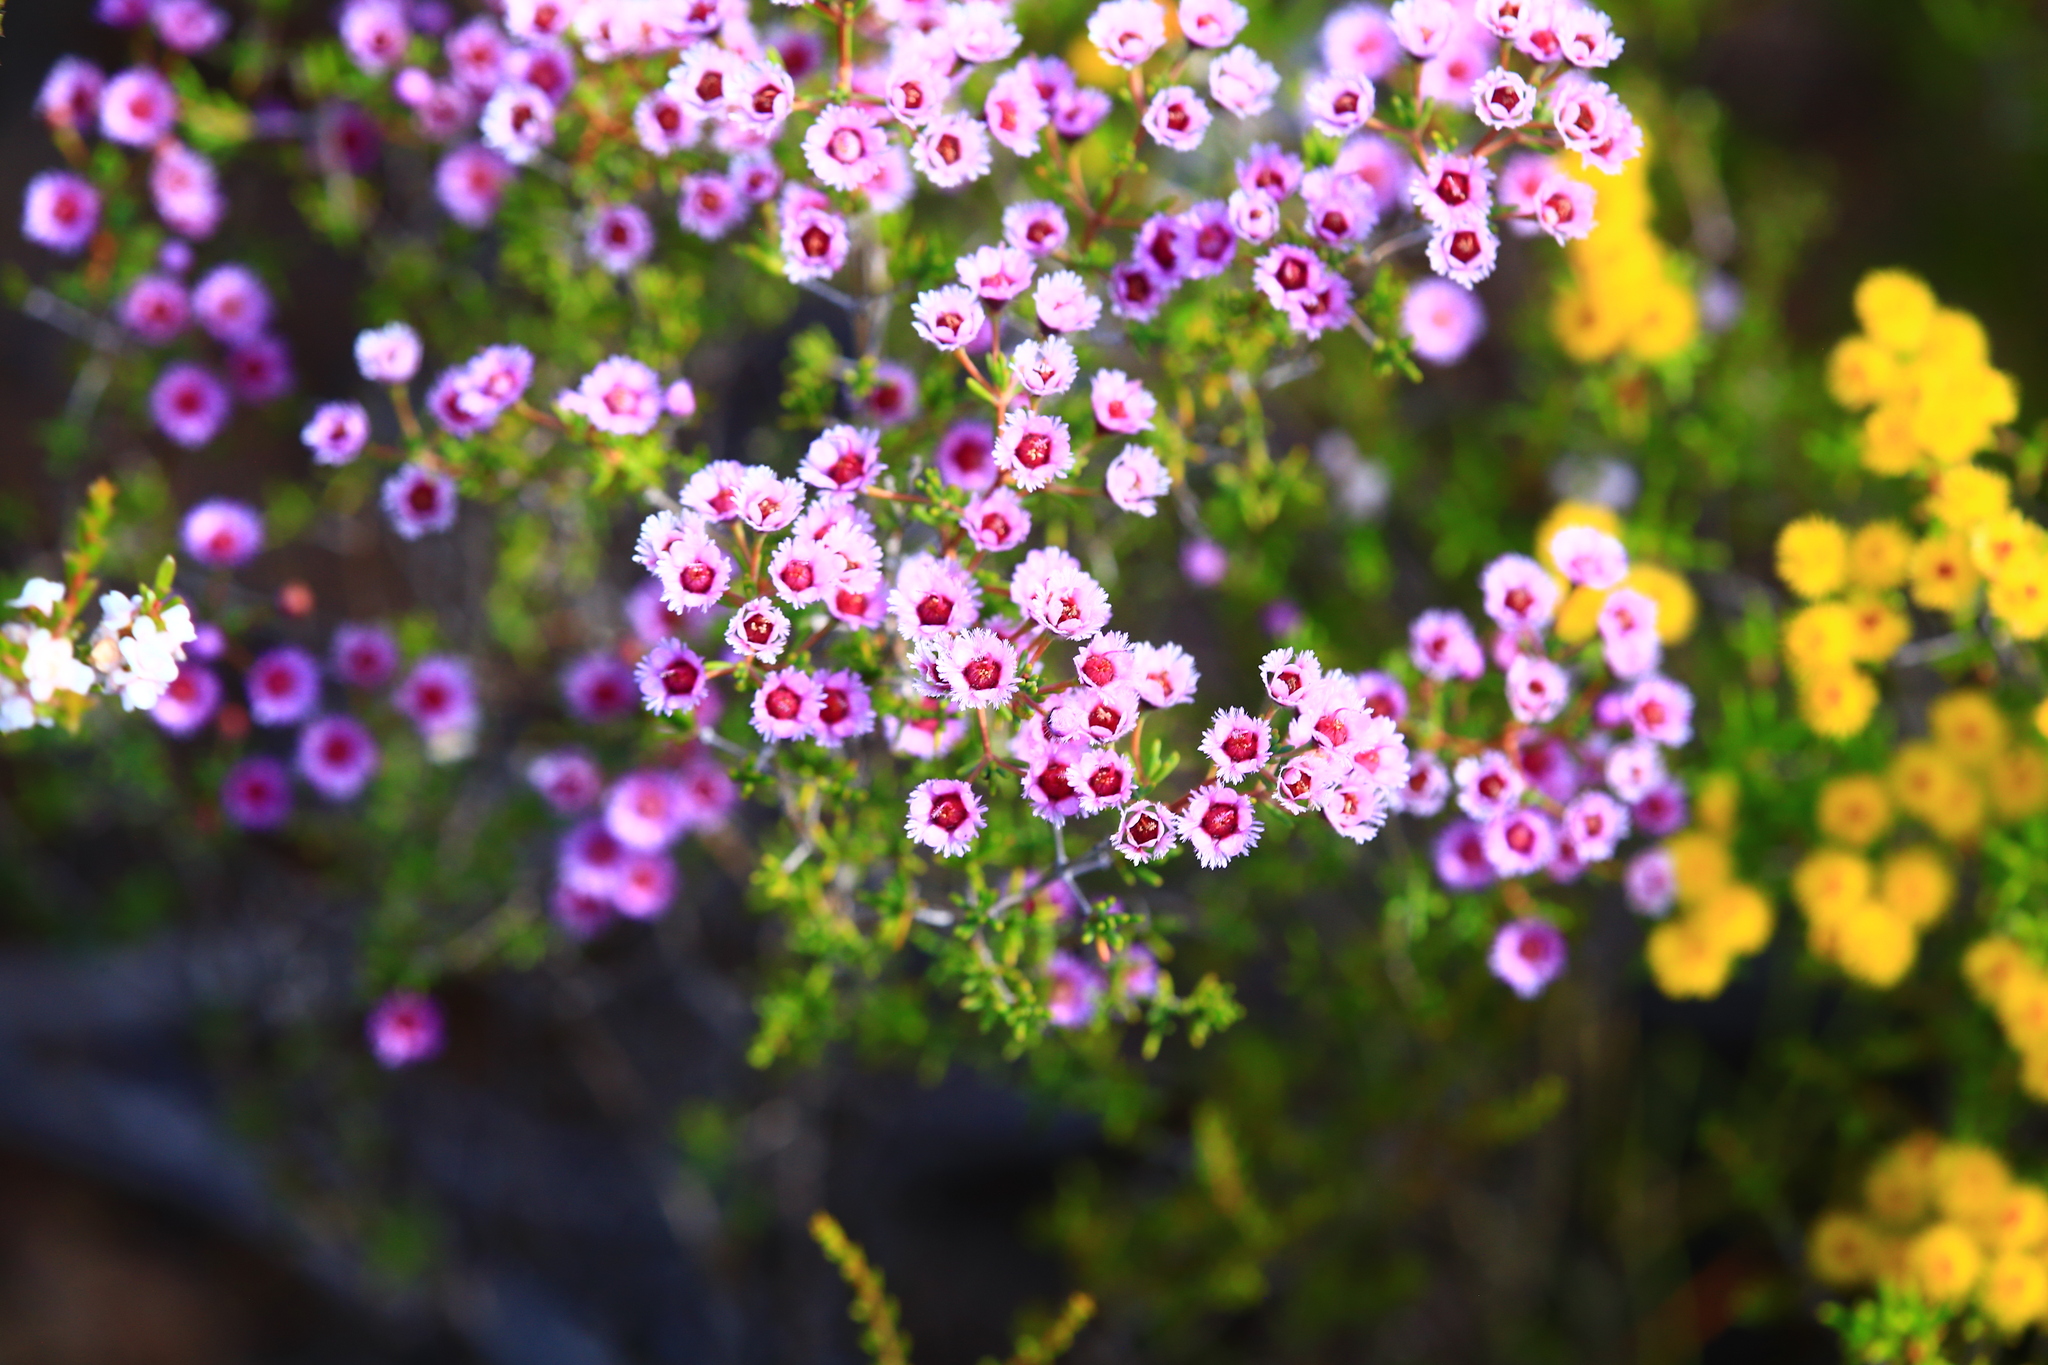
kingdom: Plantae
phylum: Tracheophyta
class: Magnoliopsida
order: Myrtales
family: Myrtaceae
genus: Verticordia
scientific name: Verticordia plumosa
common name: Plume feather-flower
